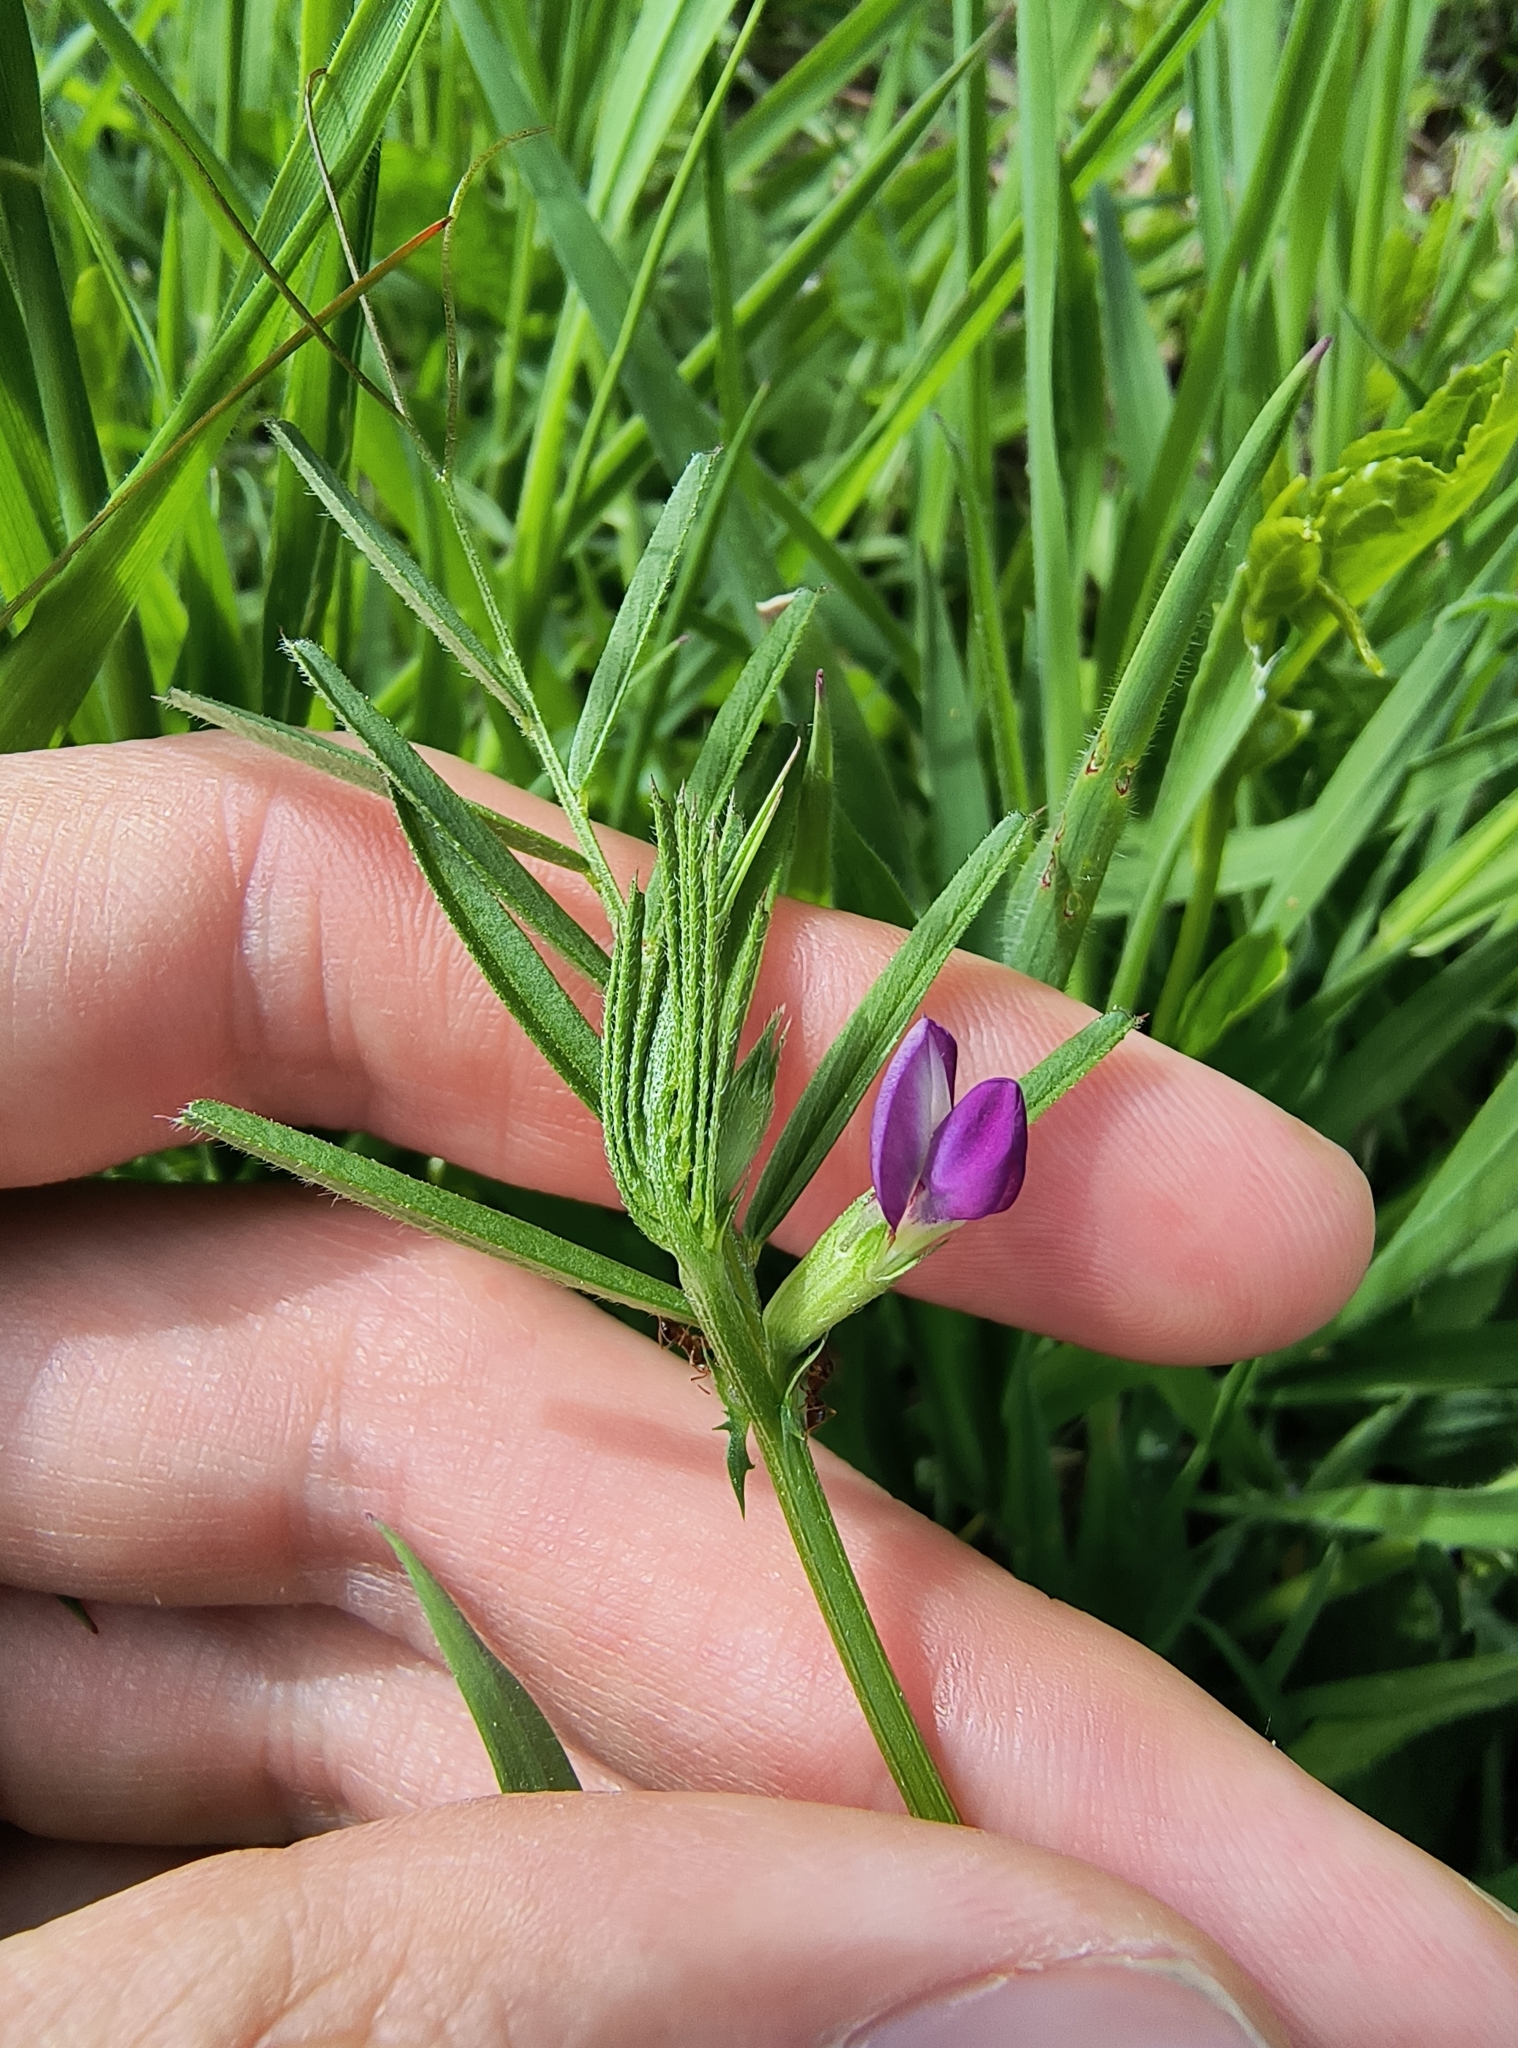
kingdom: Plantae
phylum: Tracheophyta
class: Magnoliopsida
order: Fabales
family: Fabaceae
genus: Vicia
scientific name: Vicia sativa
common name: Garden vetch
